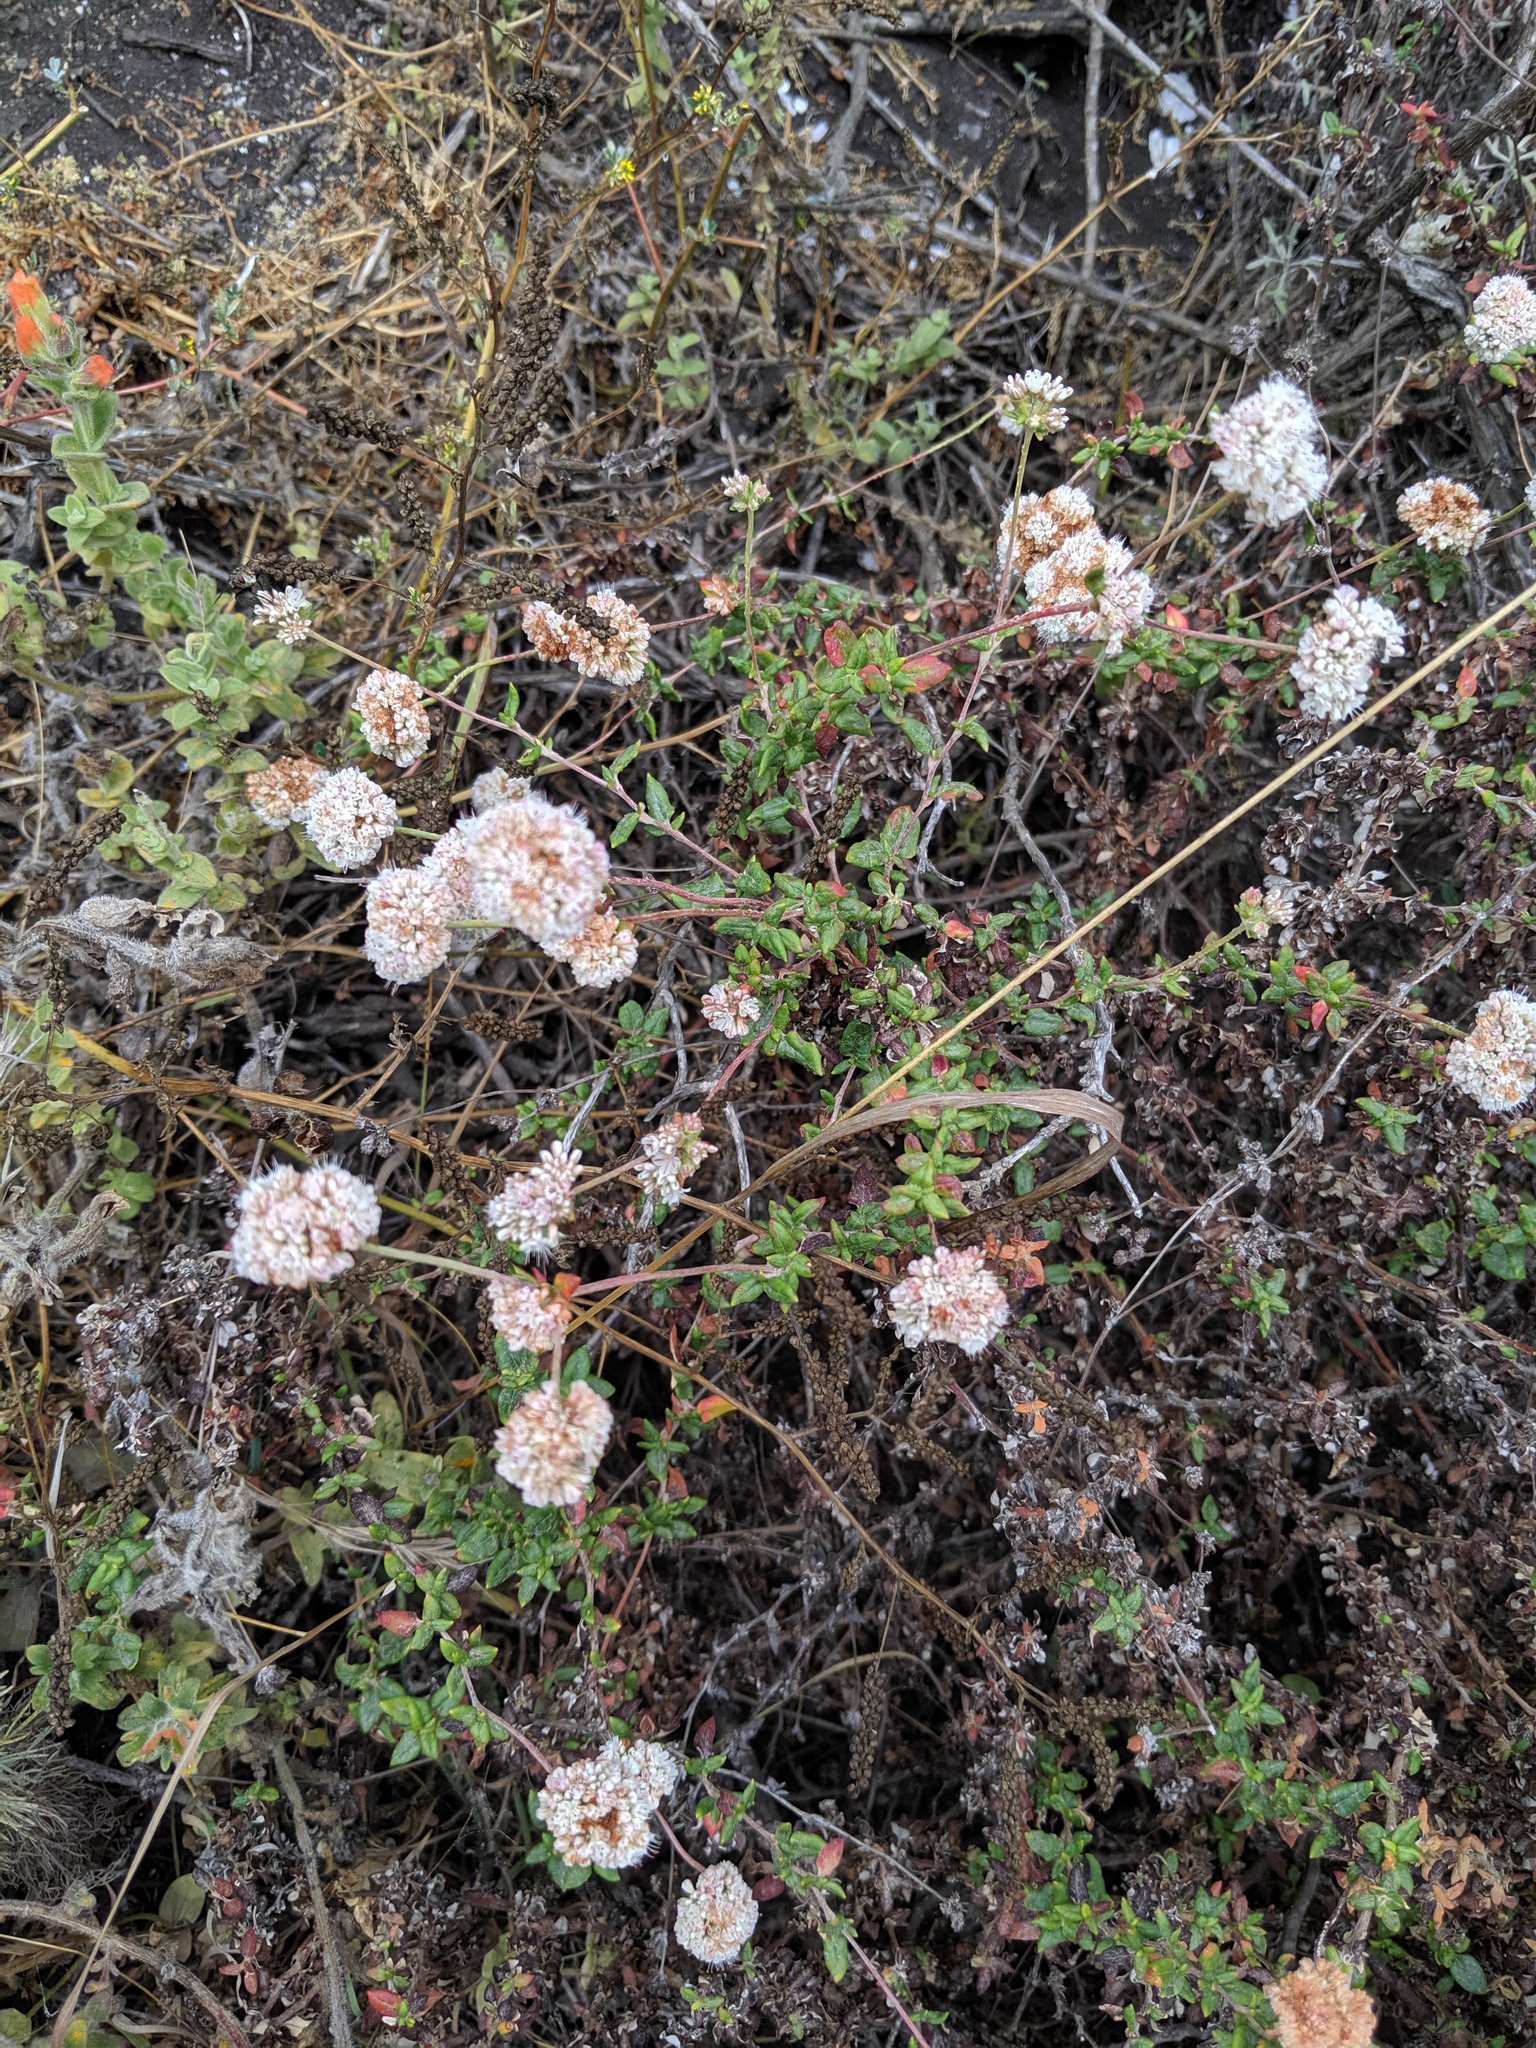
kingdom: Plantae
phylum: Tracheophyta
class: Magnoliopsida
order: Caryophyllales
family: Polygonaceae
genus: Eriogonum
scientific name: Eriogonum parvifolium
